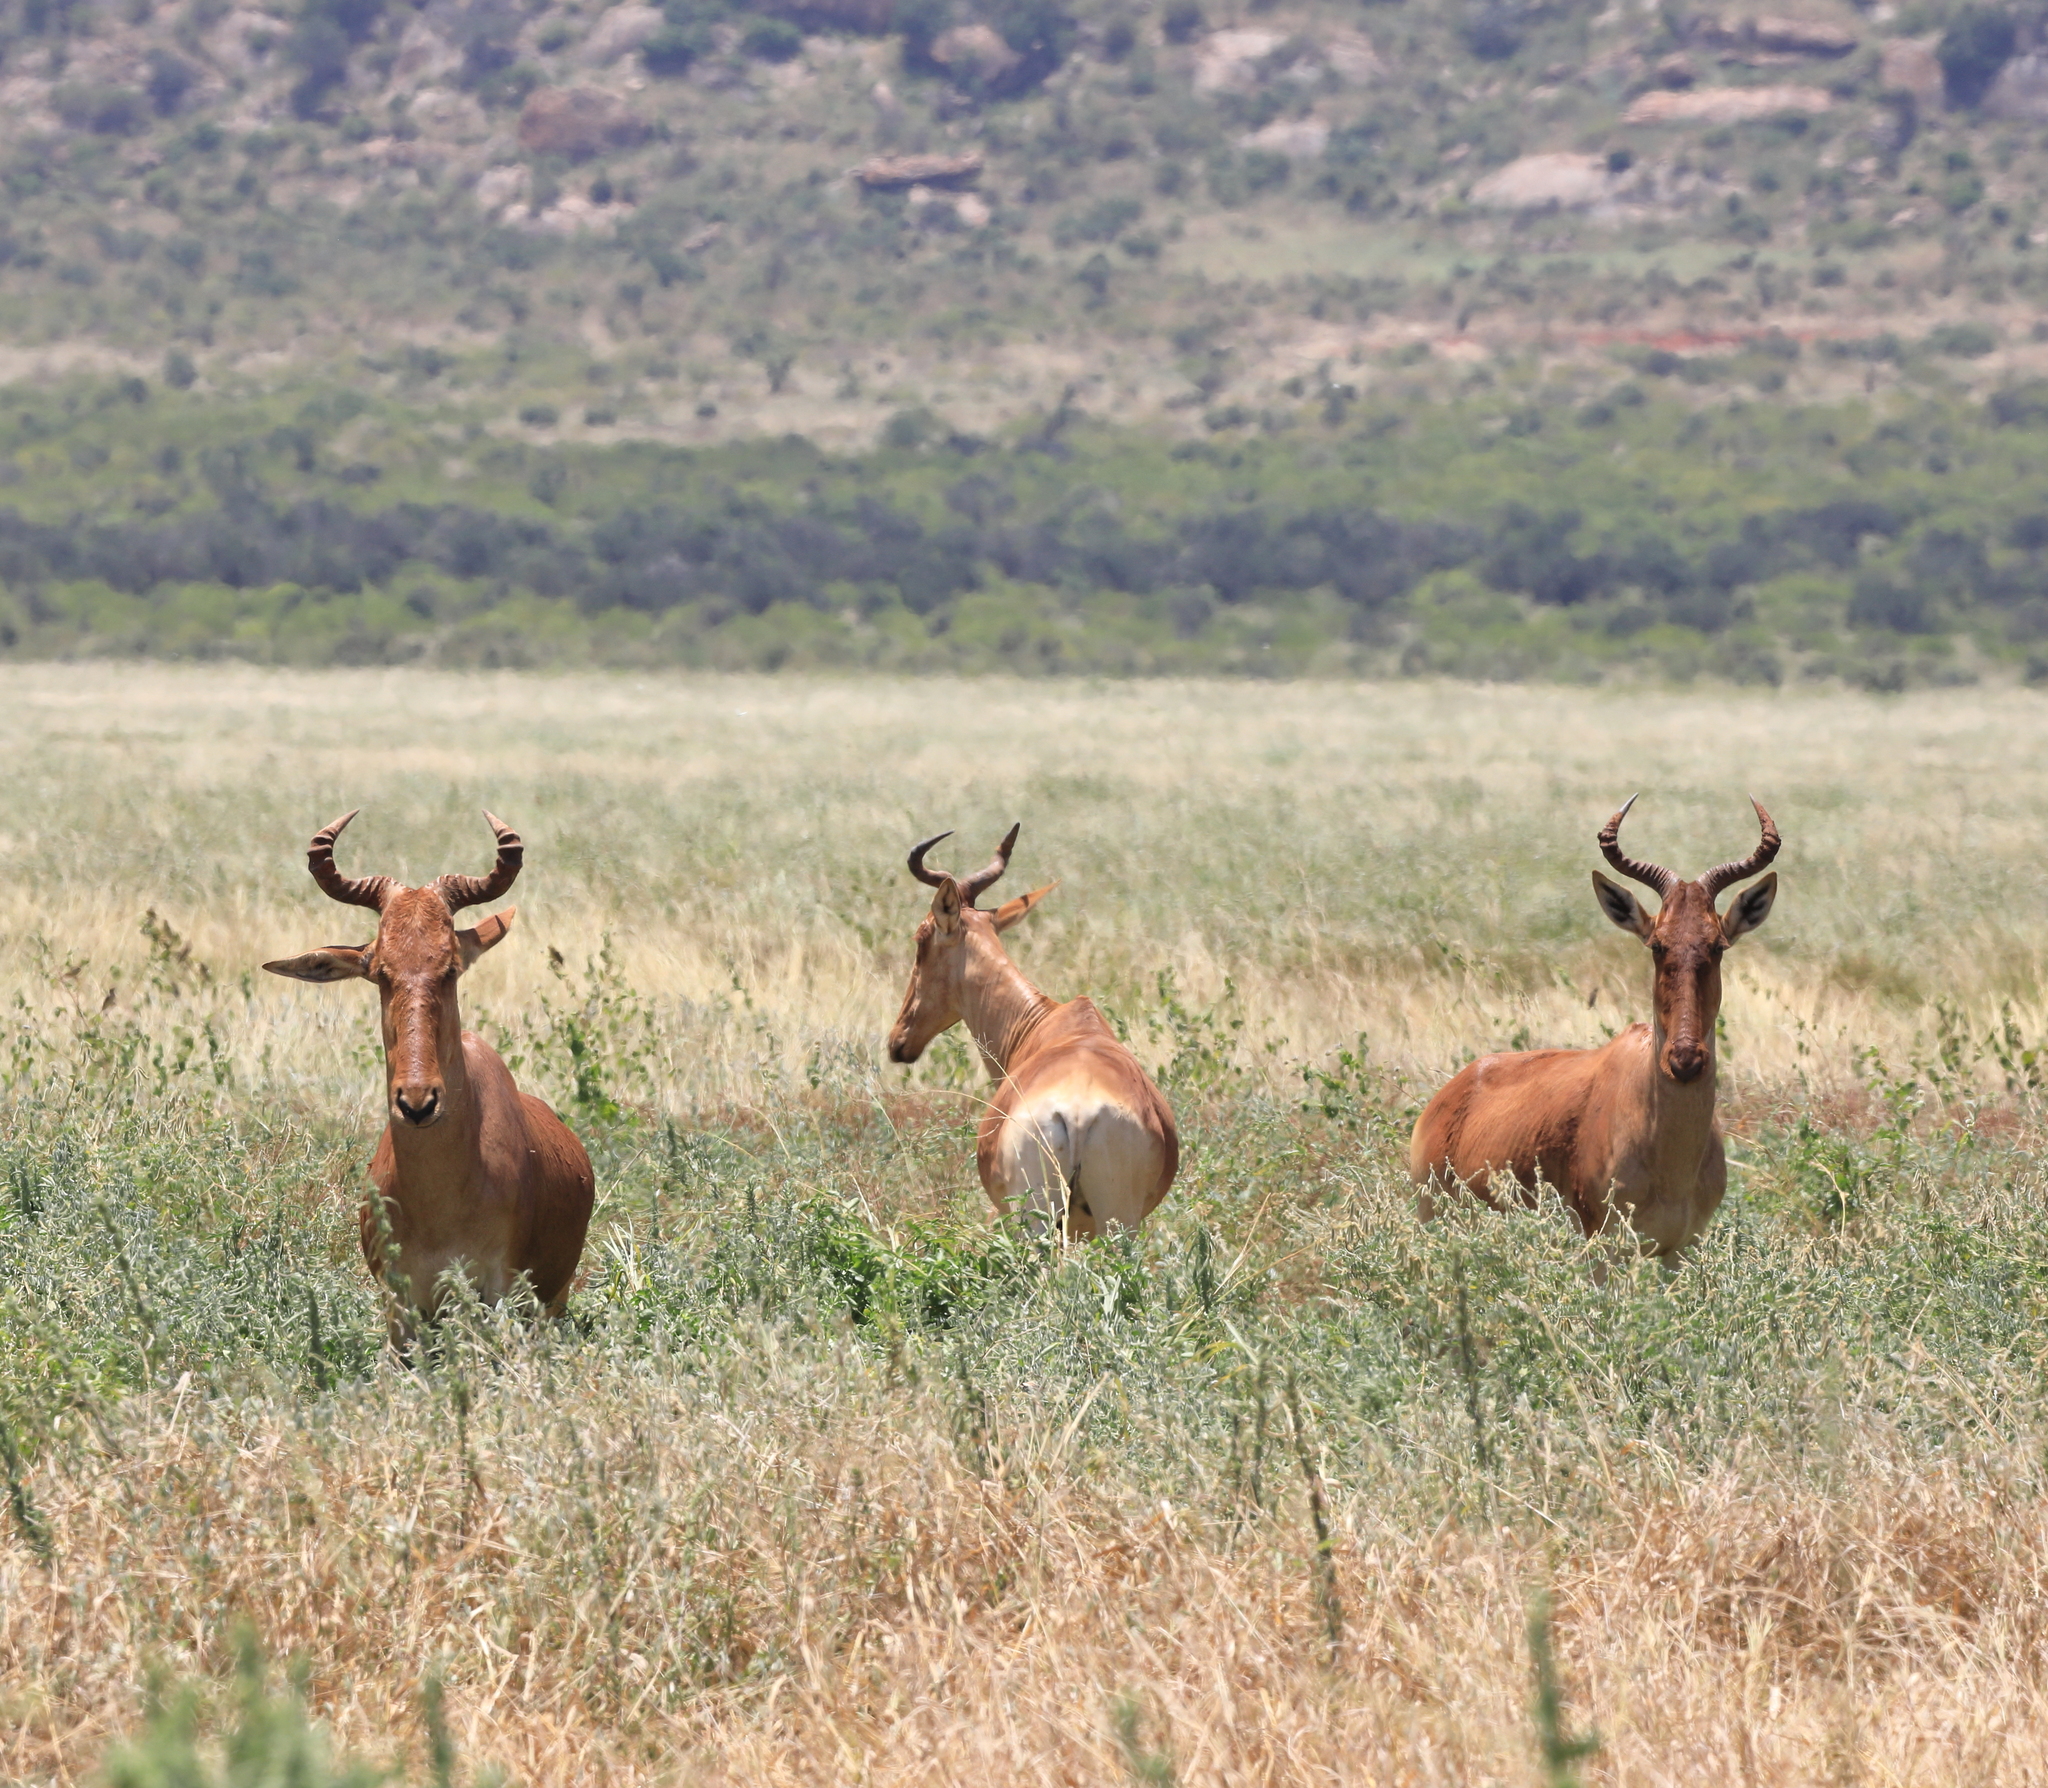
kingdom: Animalia
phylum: Chordata
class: Mammalia
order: Artiodactyla
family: Bovidae
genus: Alcelaphus
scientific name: Alcelaphus buselaphus
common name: Hartebeest
